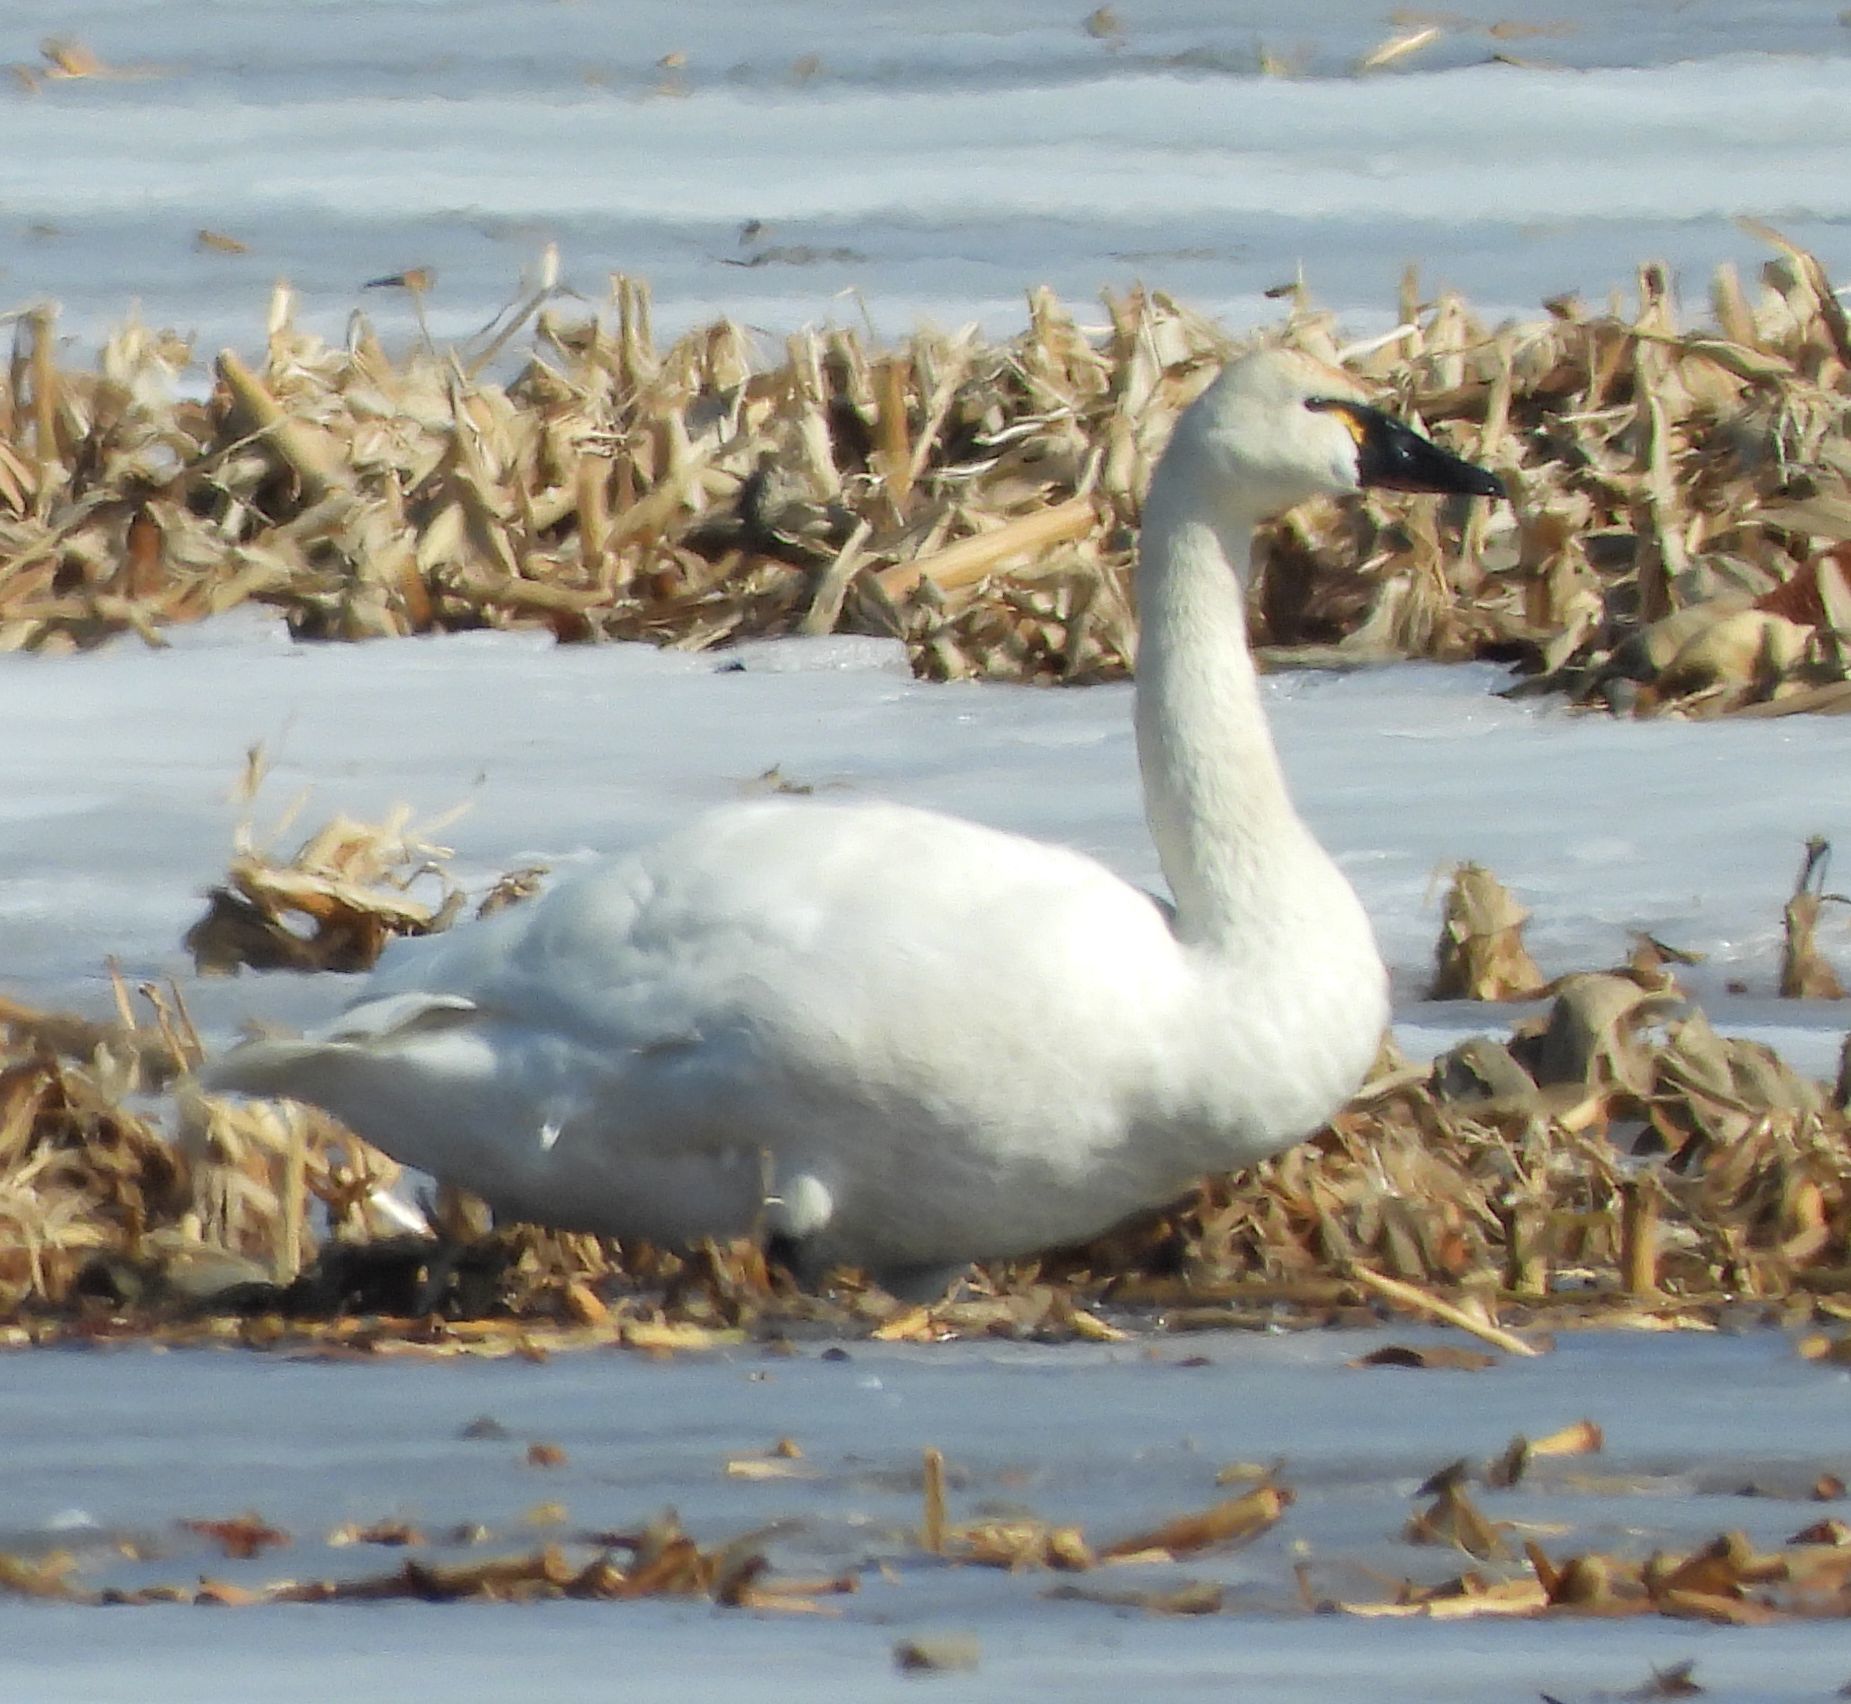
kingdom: Animalia
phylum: Chordata
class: Aves
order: Anseriformes
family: Anatidae
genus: Cygnus
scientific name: Cygnus columbianus
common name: Tundra swan
